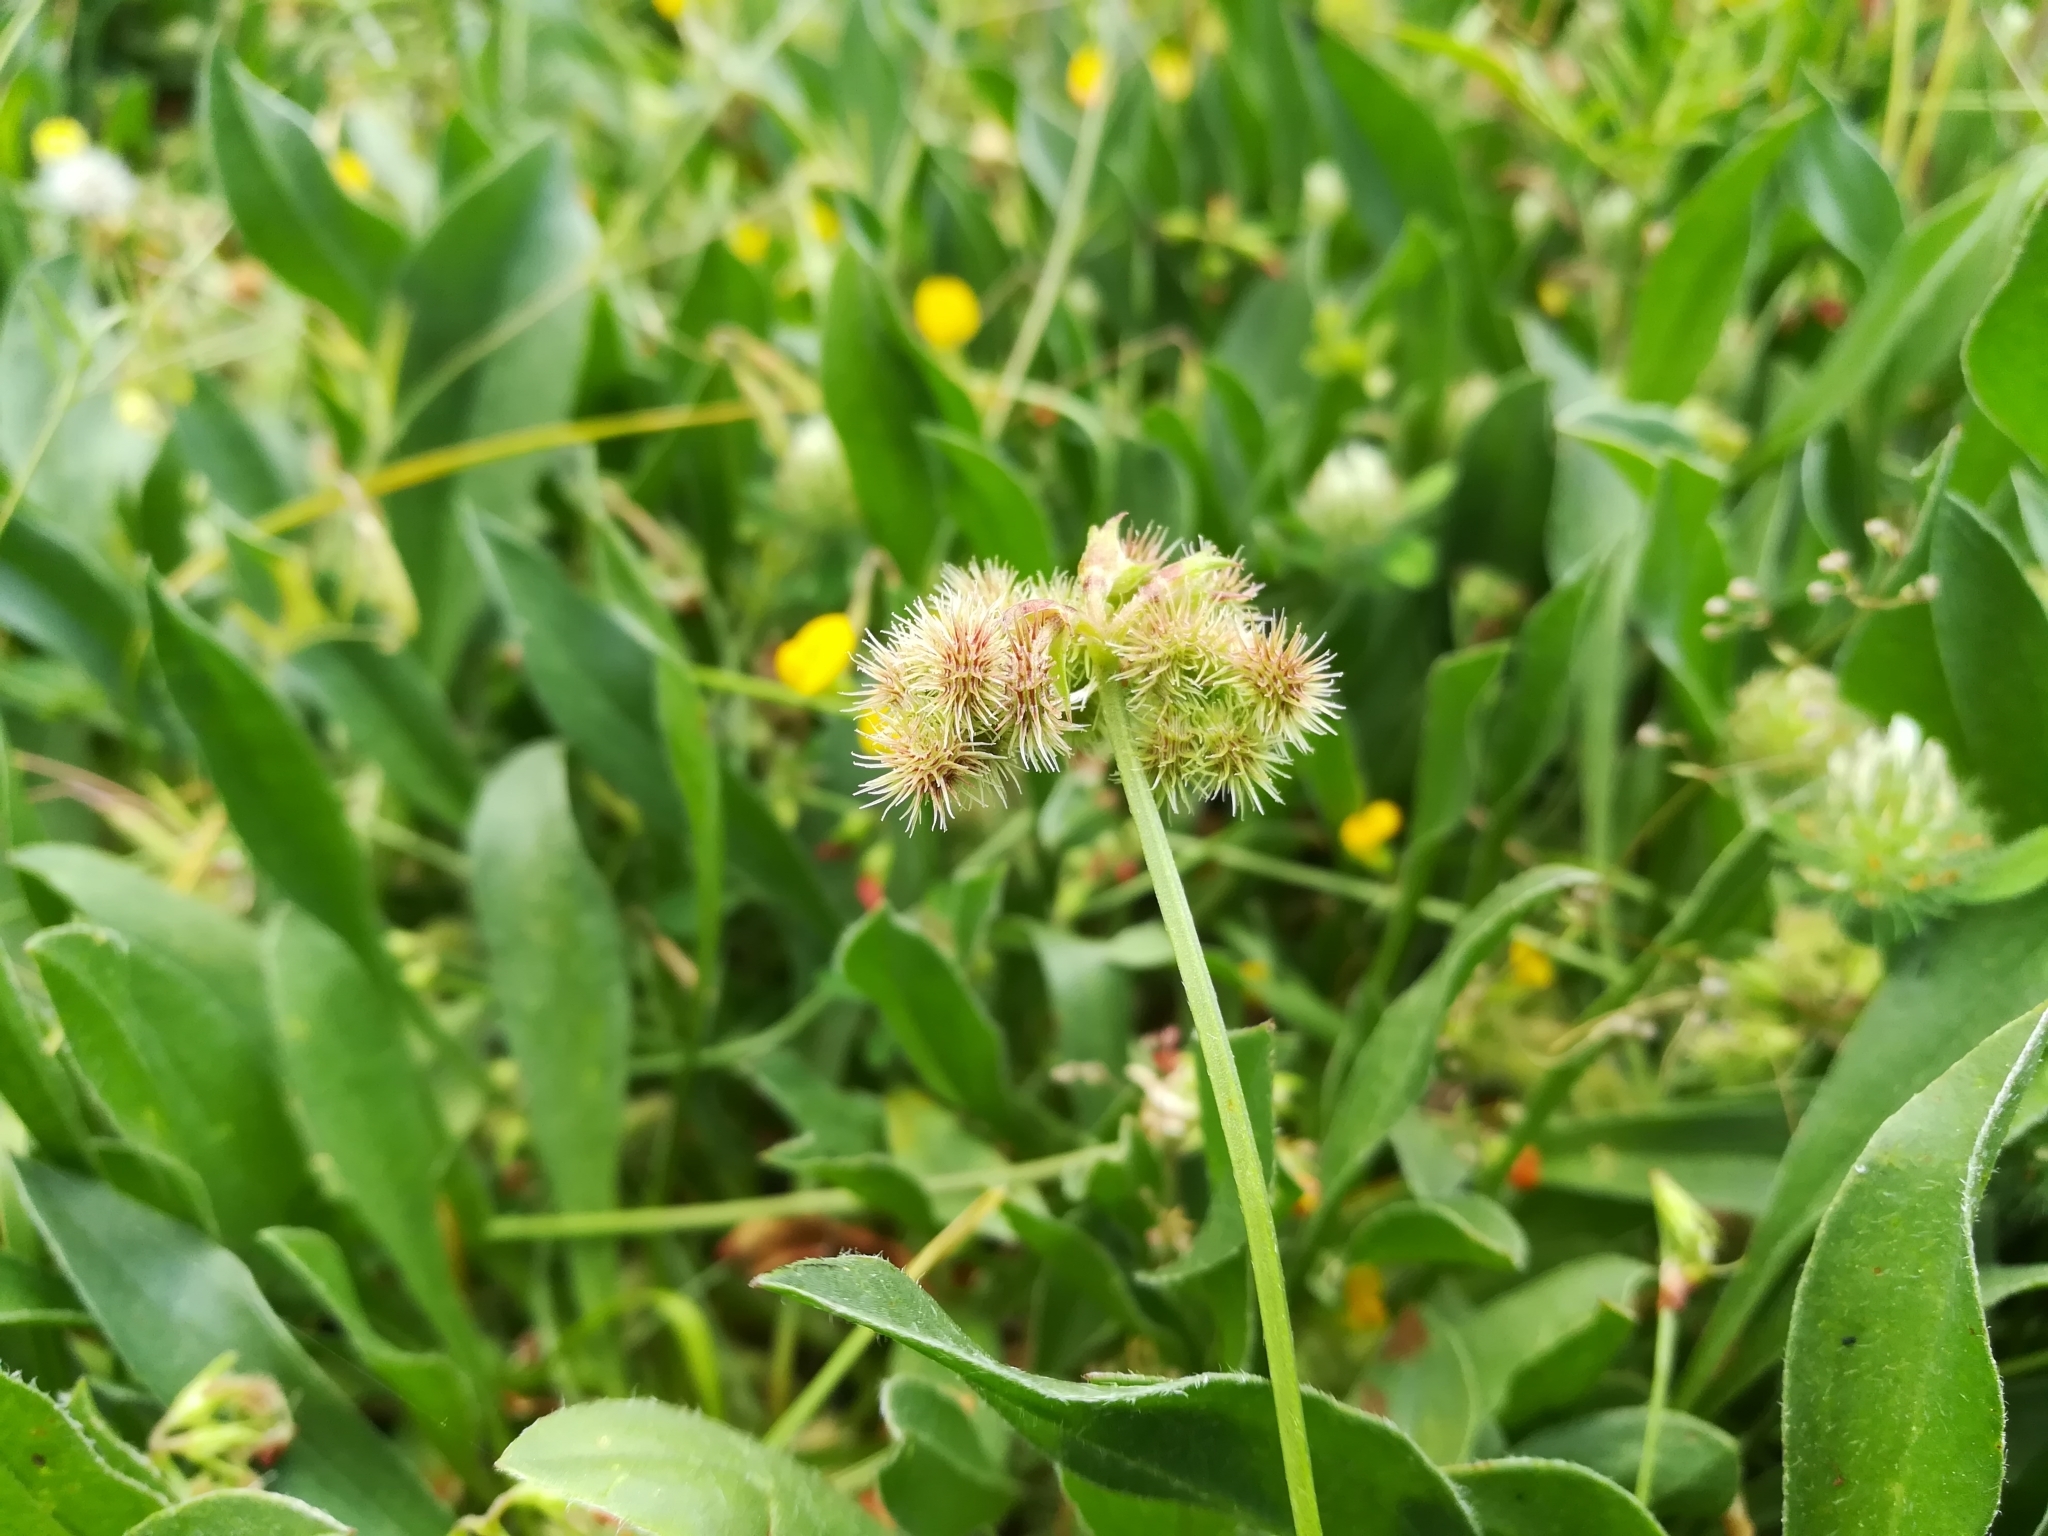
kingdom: Plantae
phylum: Tracheophyta
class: Magnoliopsida
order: Fabales
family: Fabaceae
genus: Scorpiurus
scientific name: Scorpiurus muricatus
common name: Caterpillar-plant
